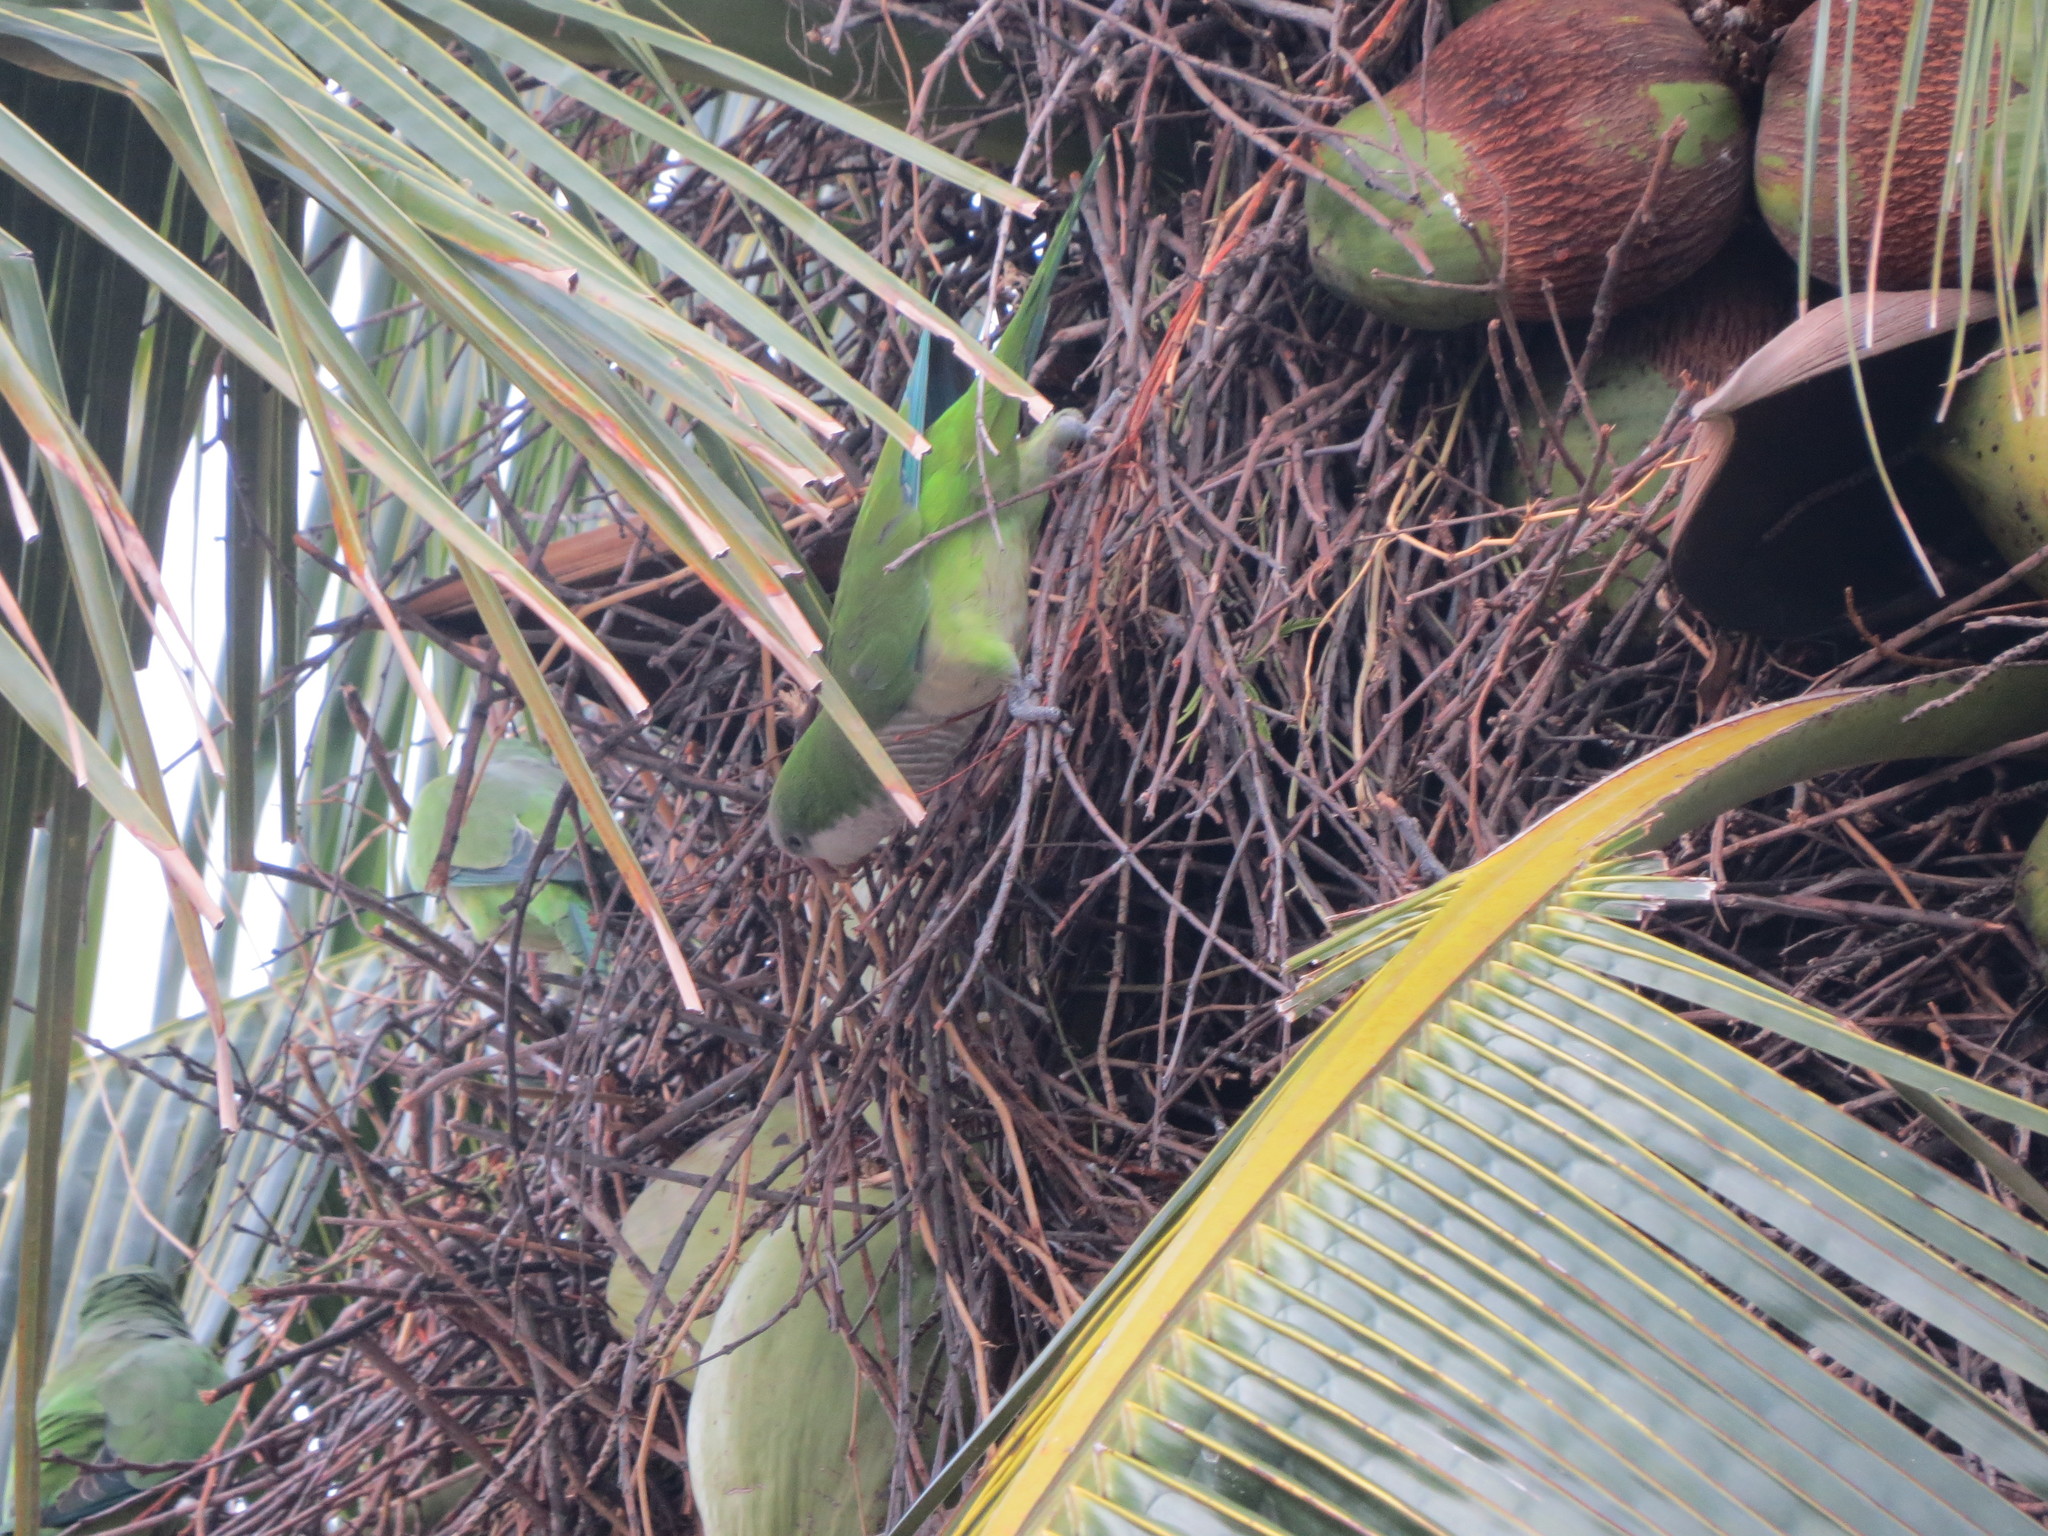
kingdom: Animalia
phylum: Chordata
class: Aves
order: Psittaciformes
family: Psittacidae
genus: Myiopsitta
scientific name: Myiopsitta monachus
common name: Monk parakeet
